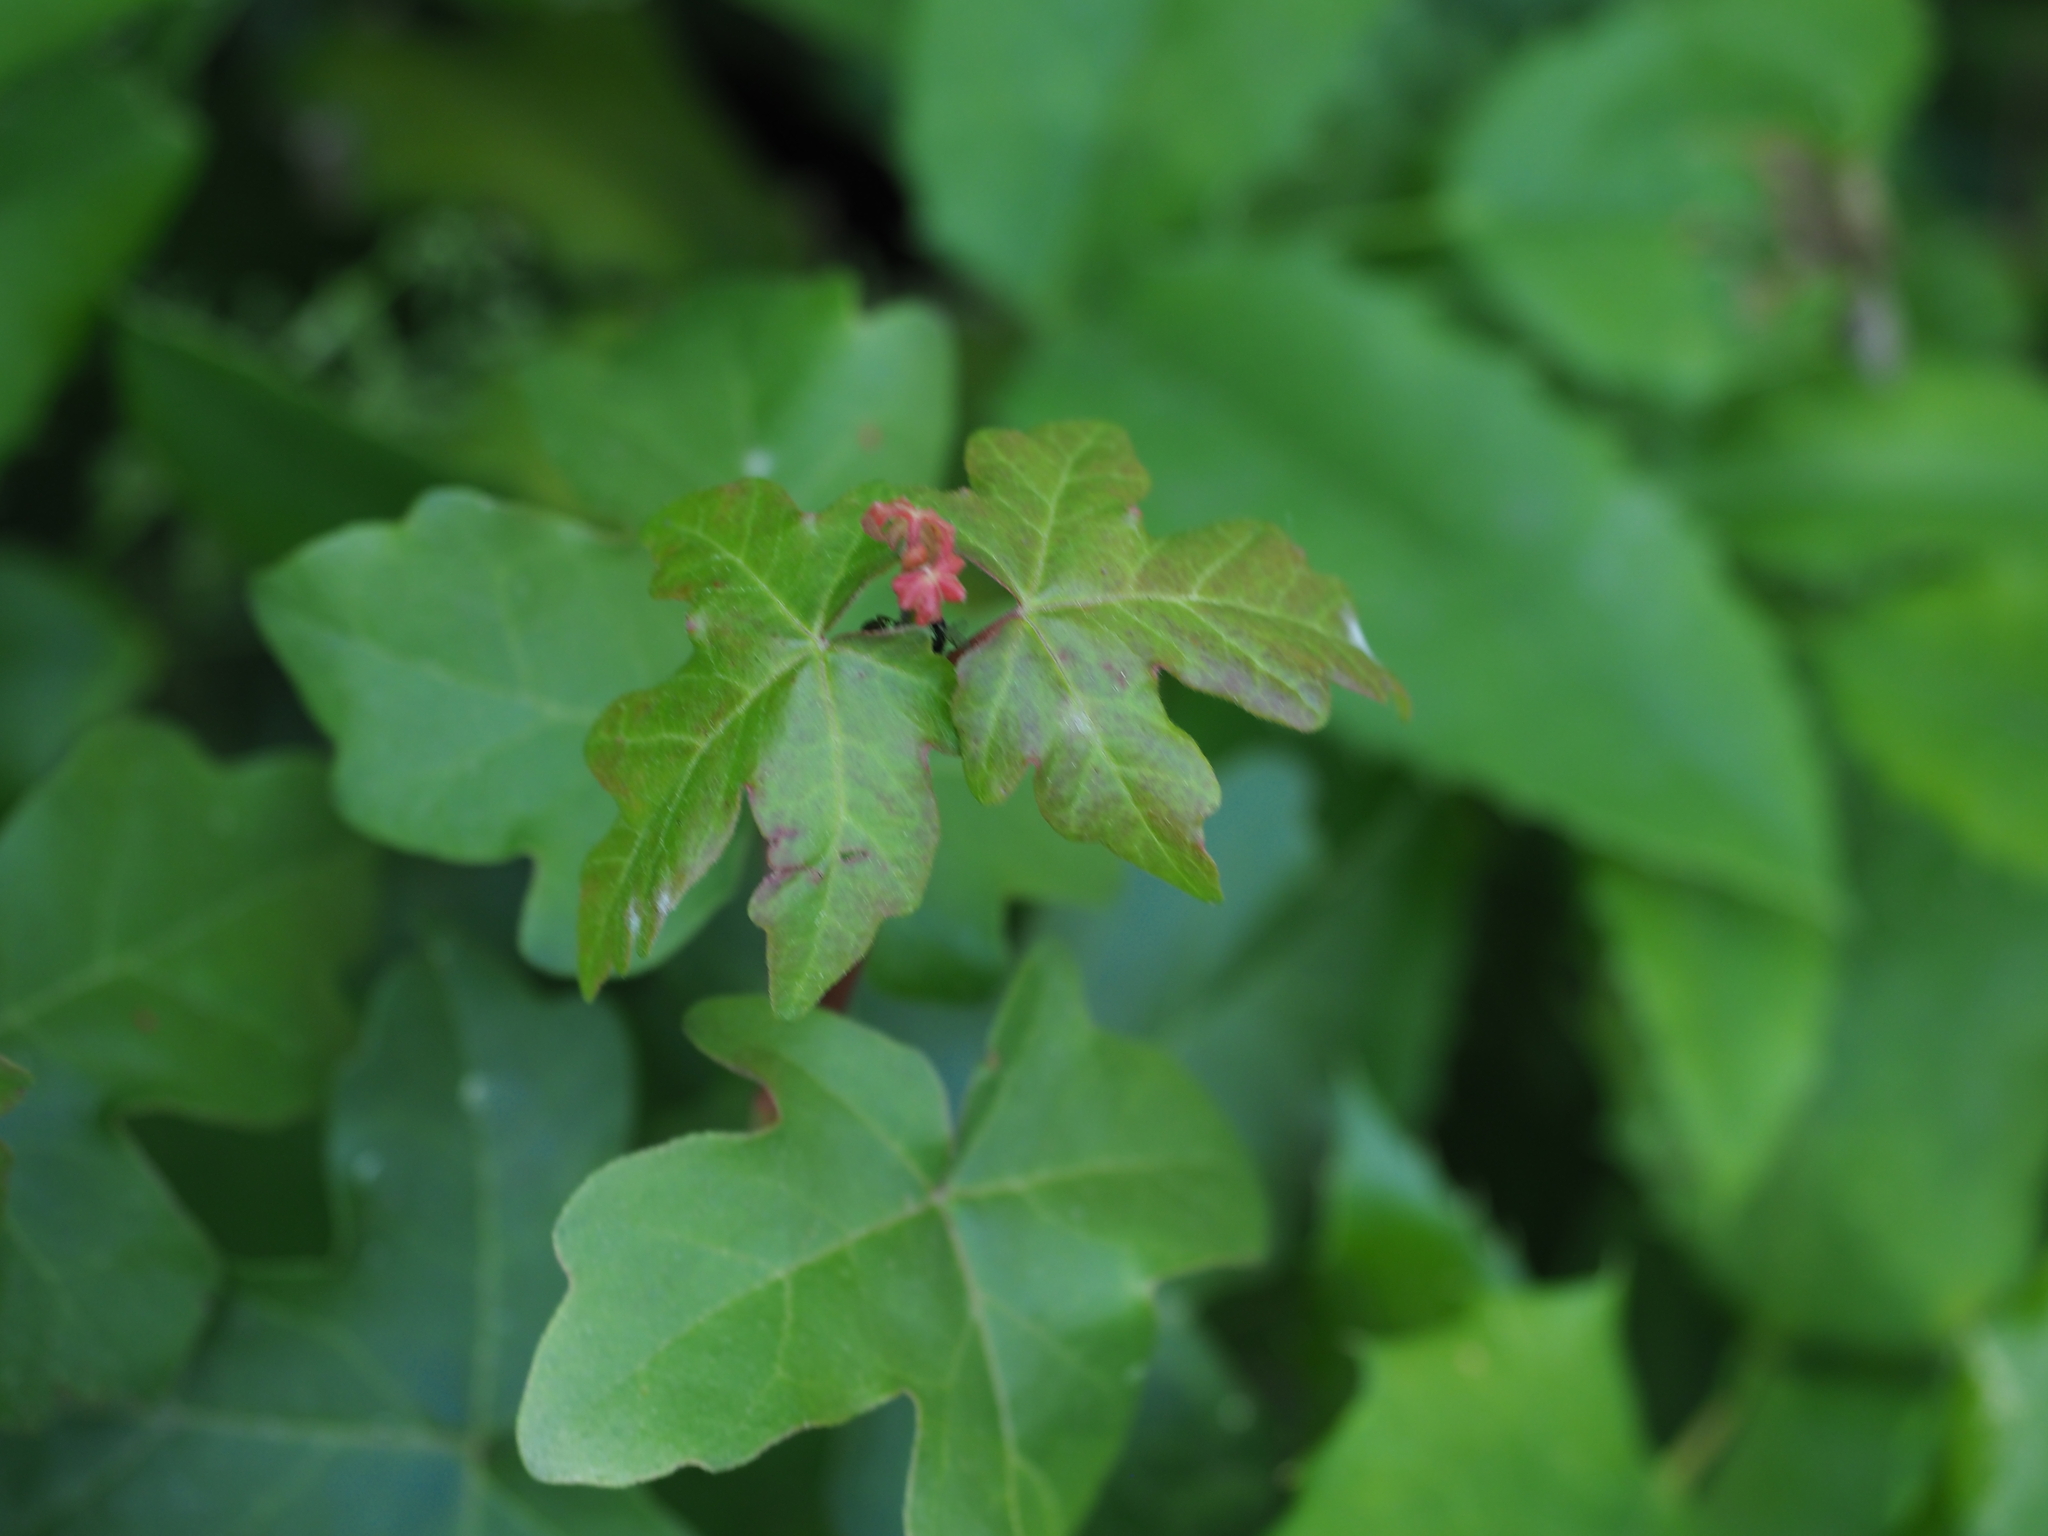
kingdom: Plantae
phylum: Tracheophyta
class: Magnoliopsida
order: Sapindales
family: Sapindaceae
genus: Acer
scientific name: Acer campestre
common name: Field maple
